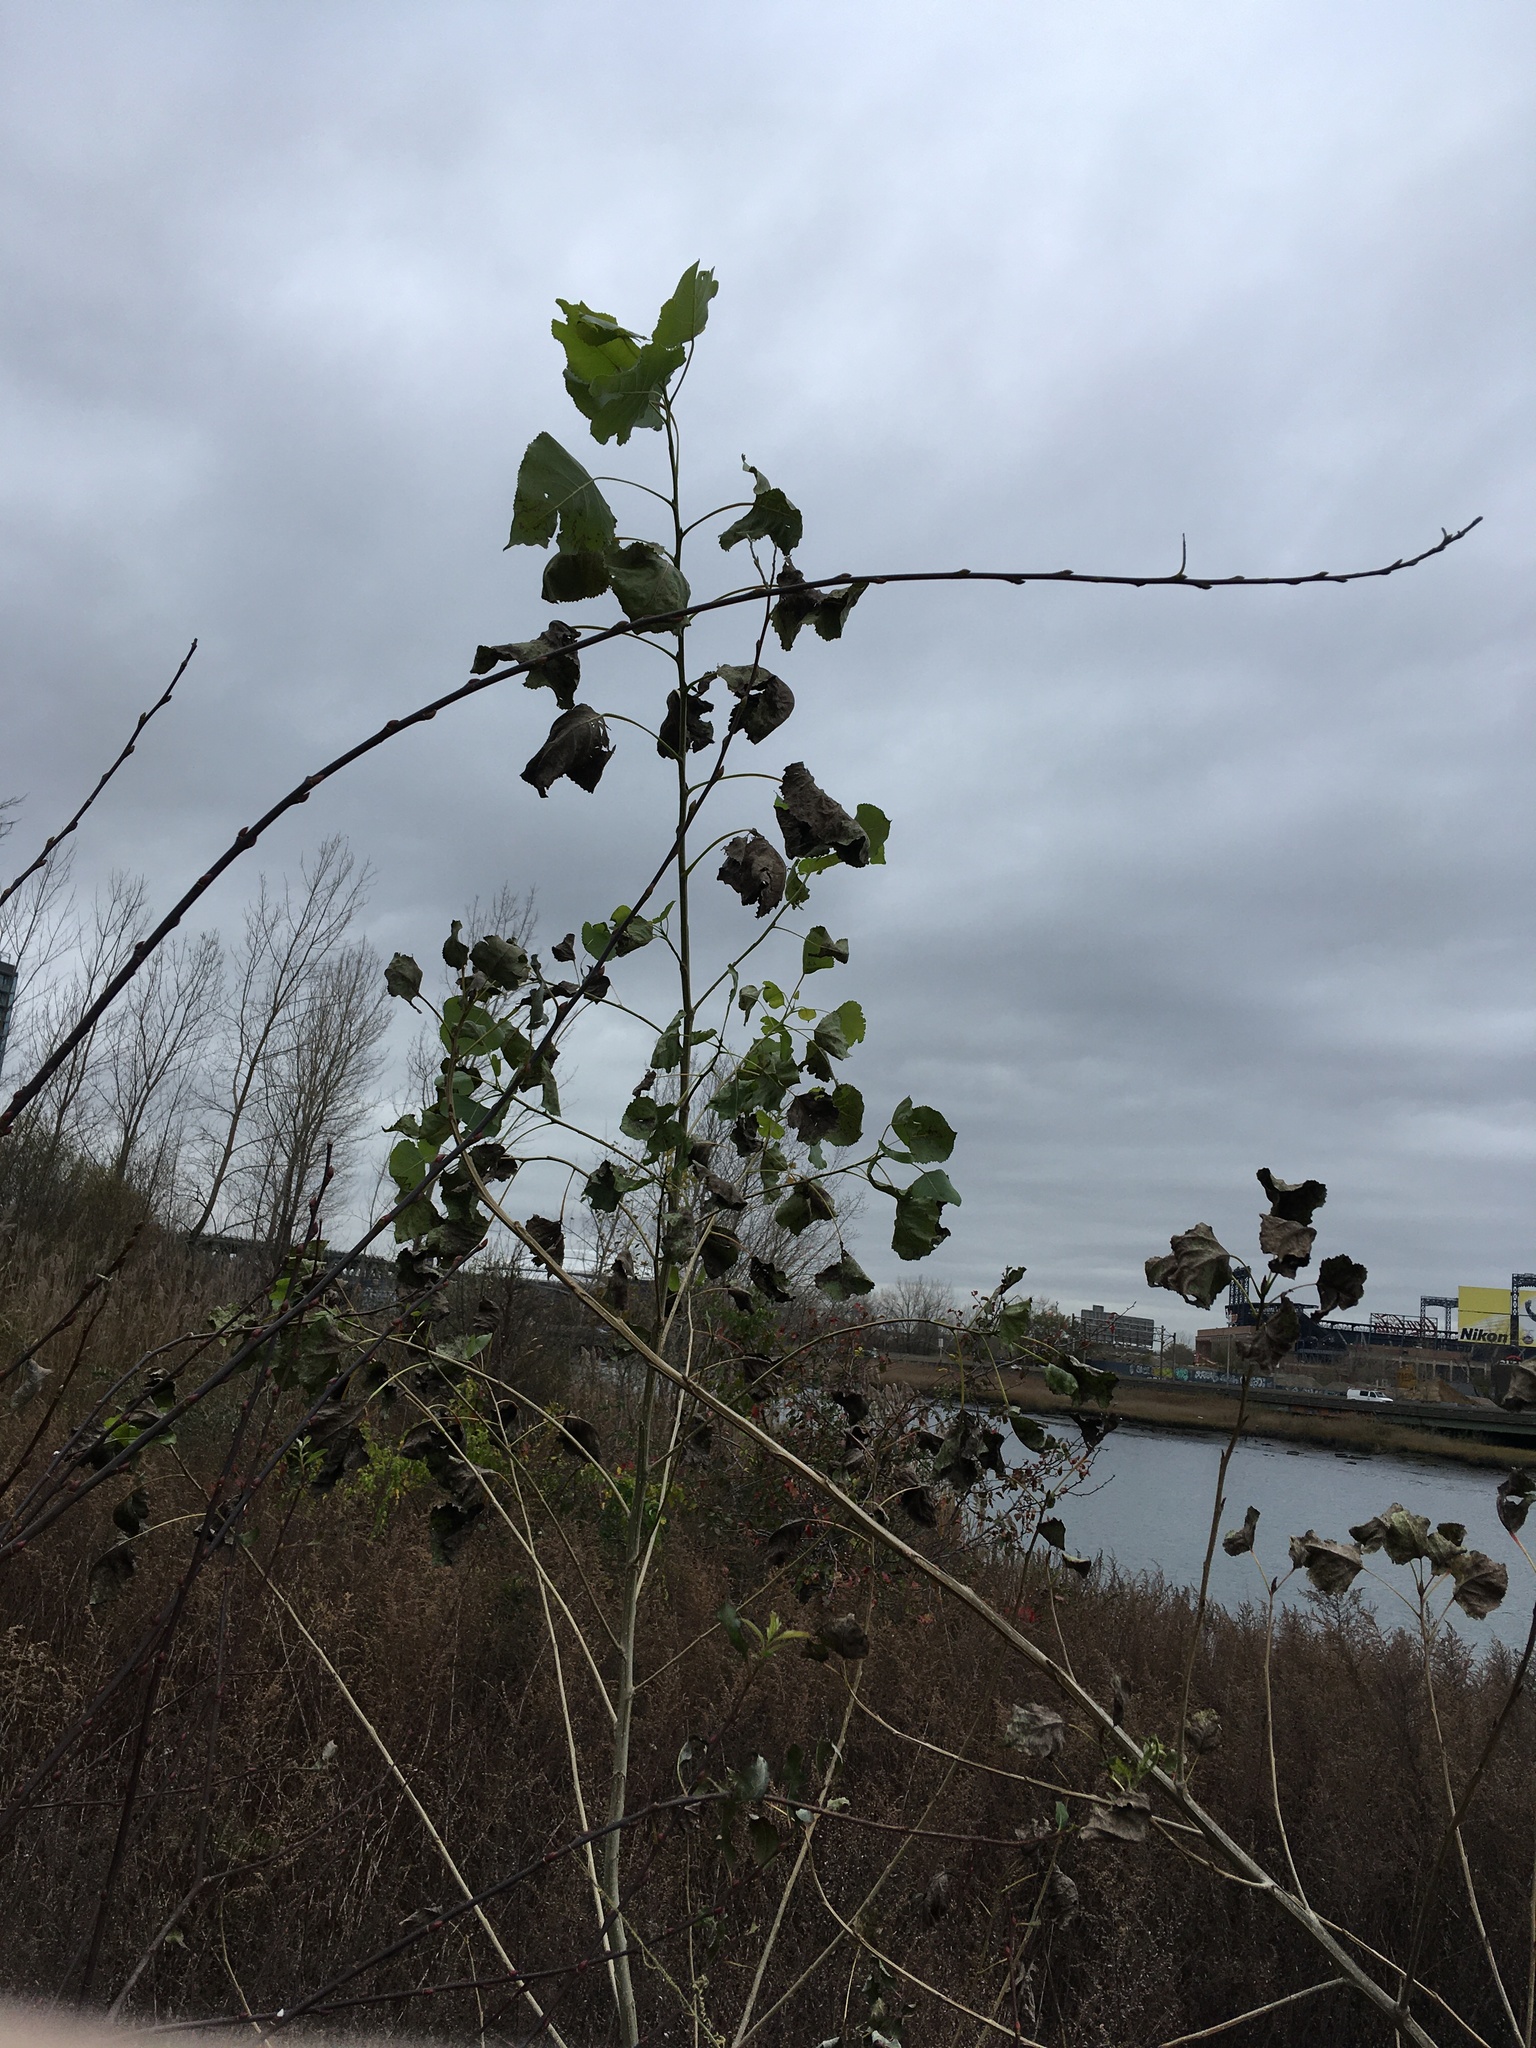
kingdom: Plantae
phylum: Tracheophyta
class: Magnoliopsida
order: Malpighiales
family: Salicaceae
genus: Populus
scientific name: Populus deltoides
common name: Eastern cottonwood
